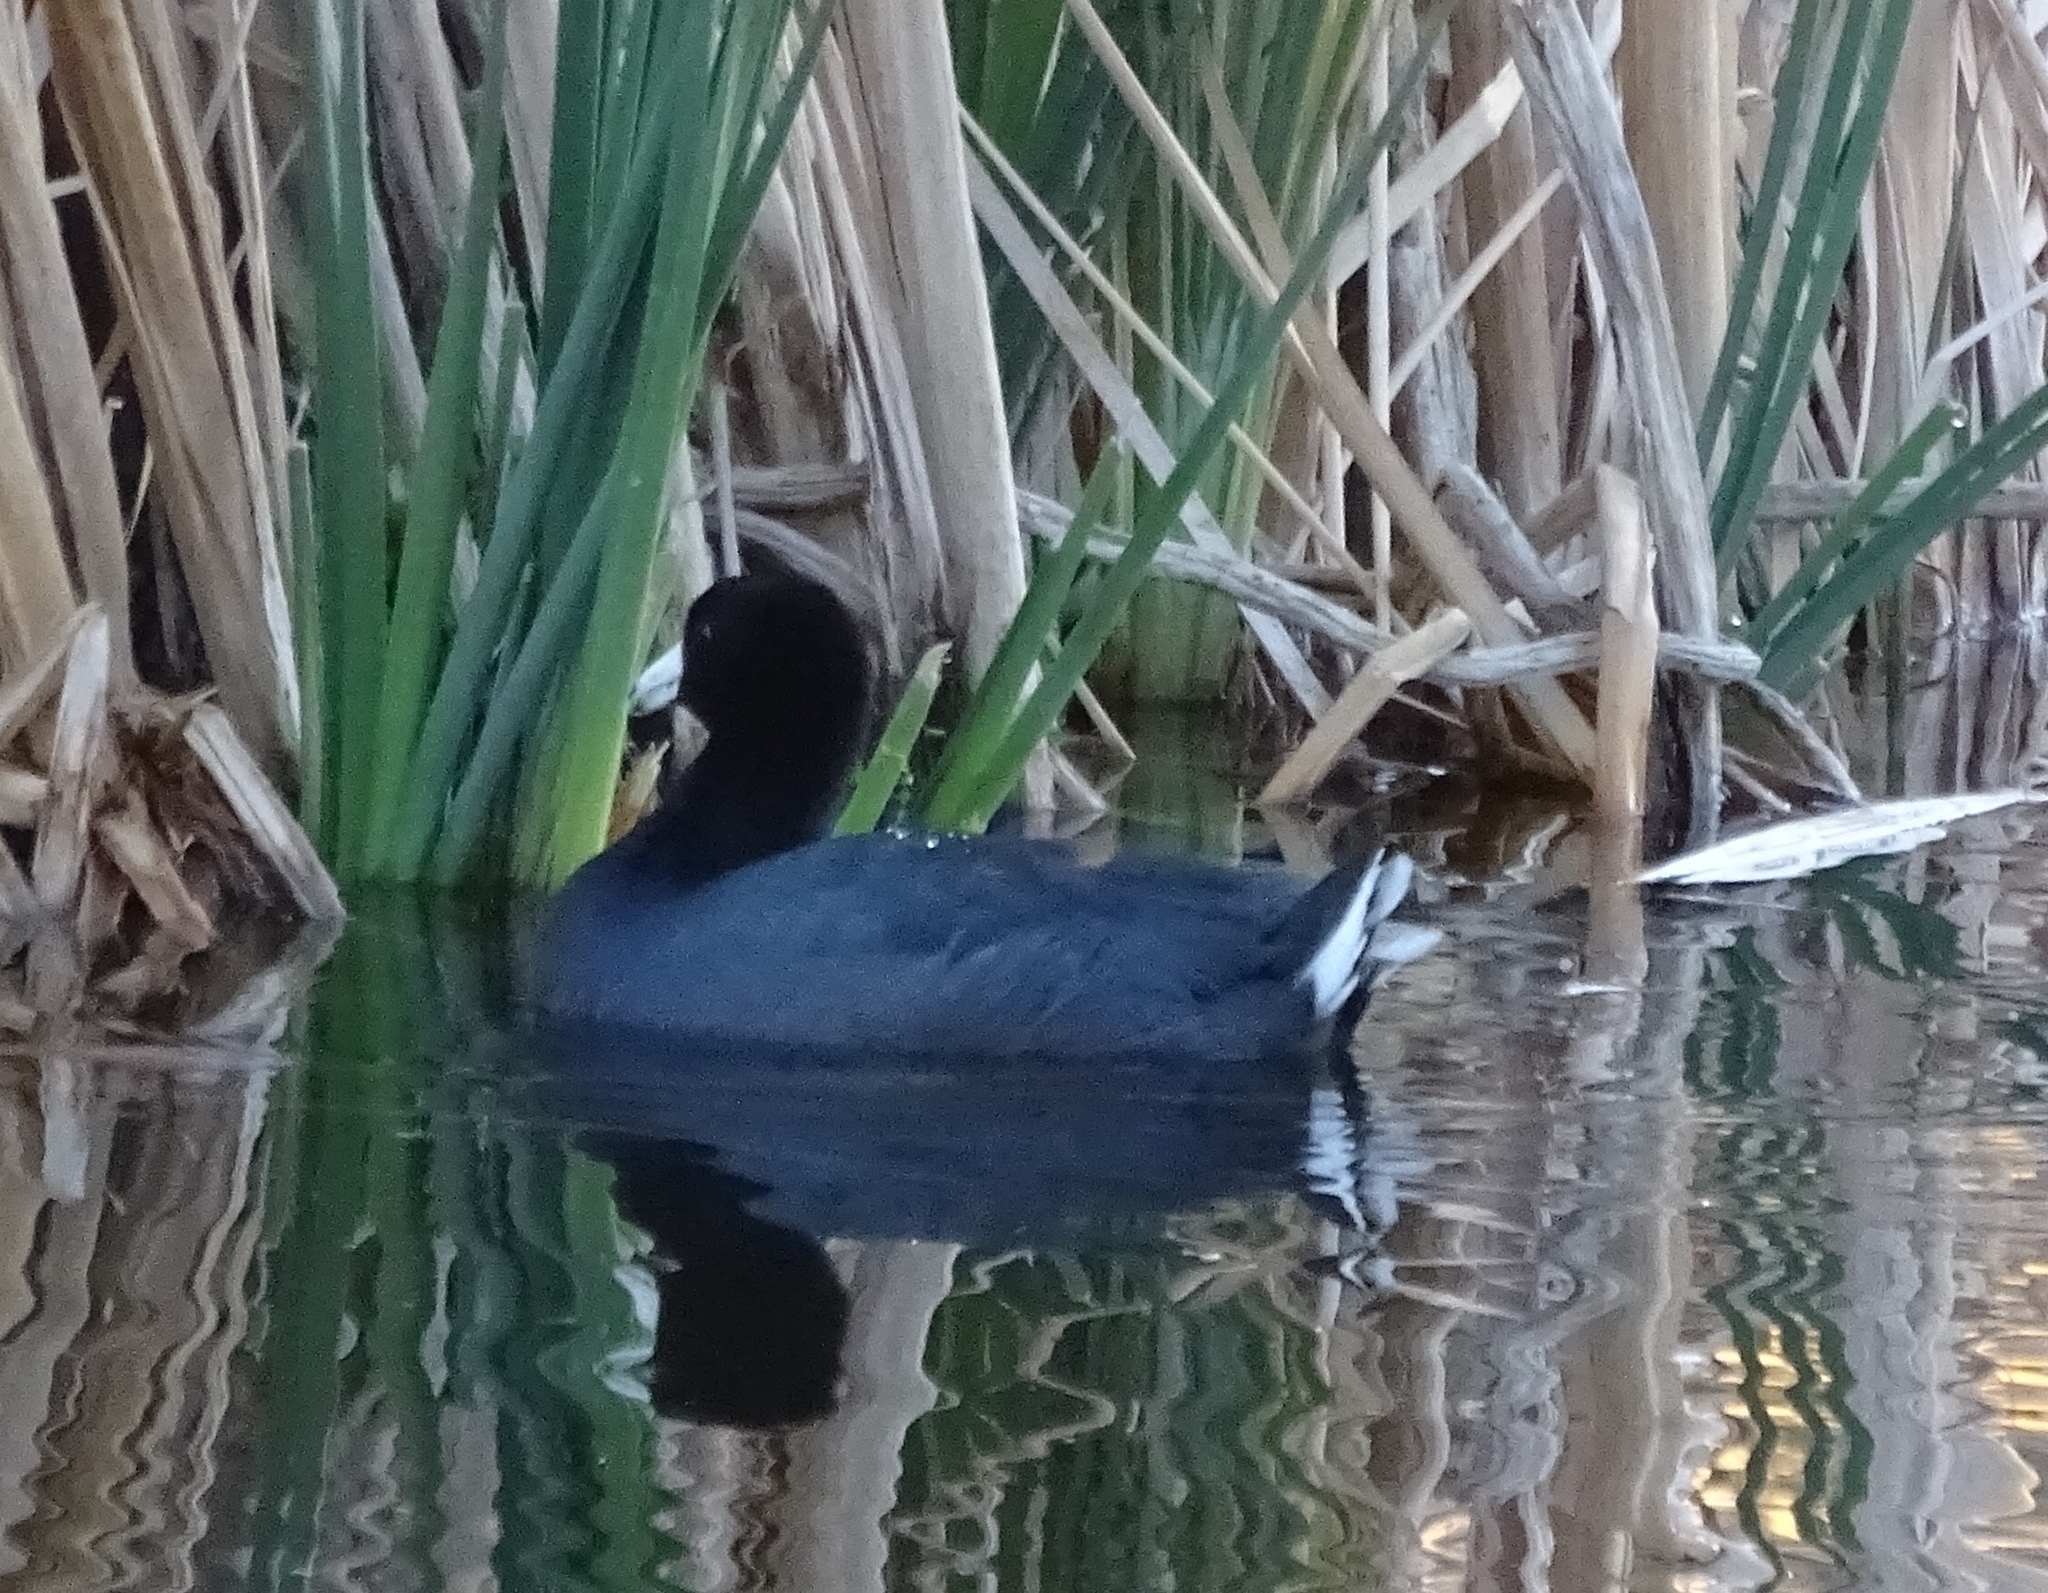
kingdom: Animalia
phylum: Chordata
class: Aves
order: Gruiformes
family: Rallidae
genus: Fulica
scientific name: Fulica americana
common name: American coot
